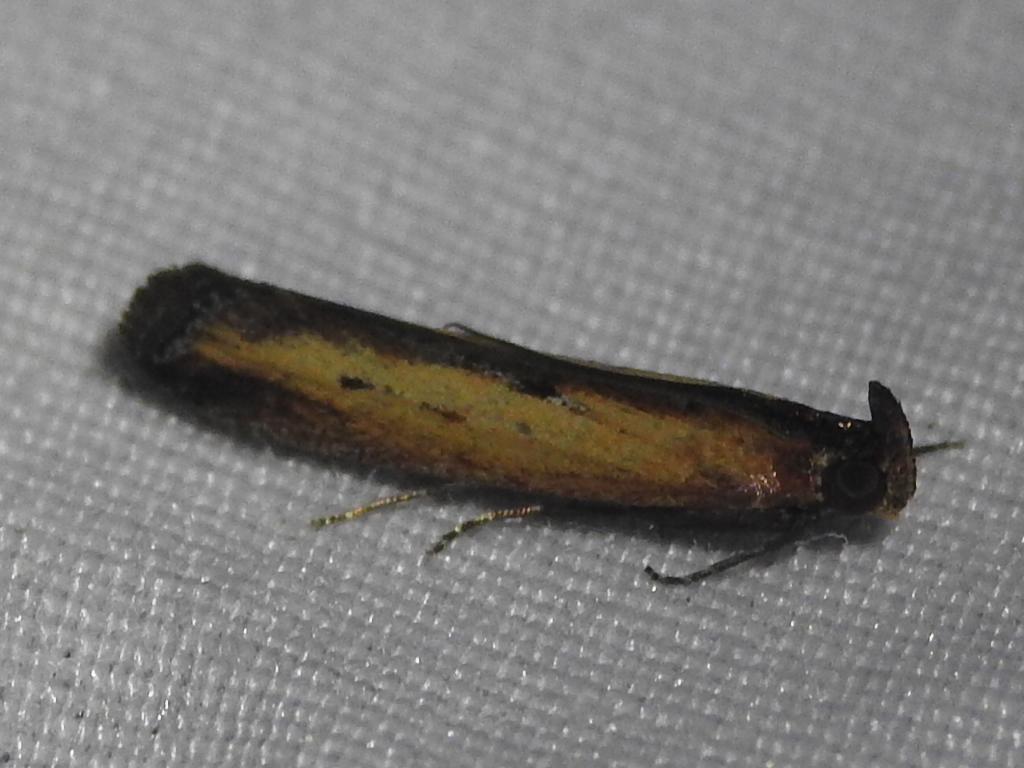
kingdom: Animalia
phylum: Arthropoda
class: Insecta
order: Lepidoptera
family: Pyralidae
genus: Elasmopalpus
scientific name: Elasmopalpus lignosella
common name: Lesser cornstalk borer
